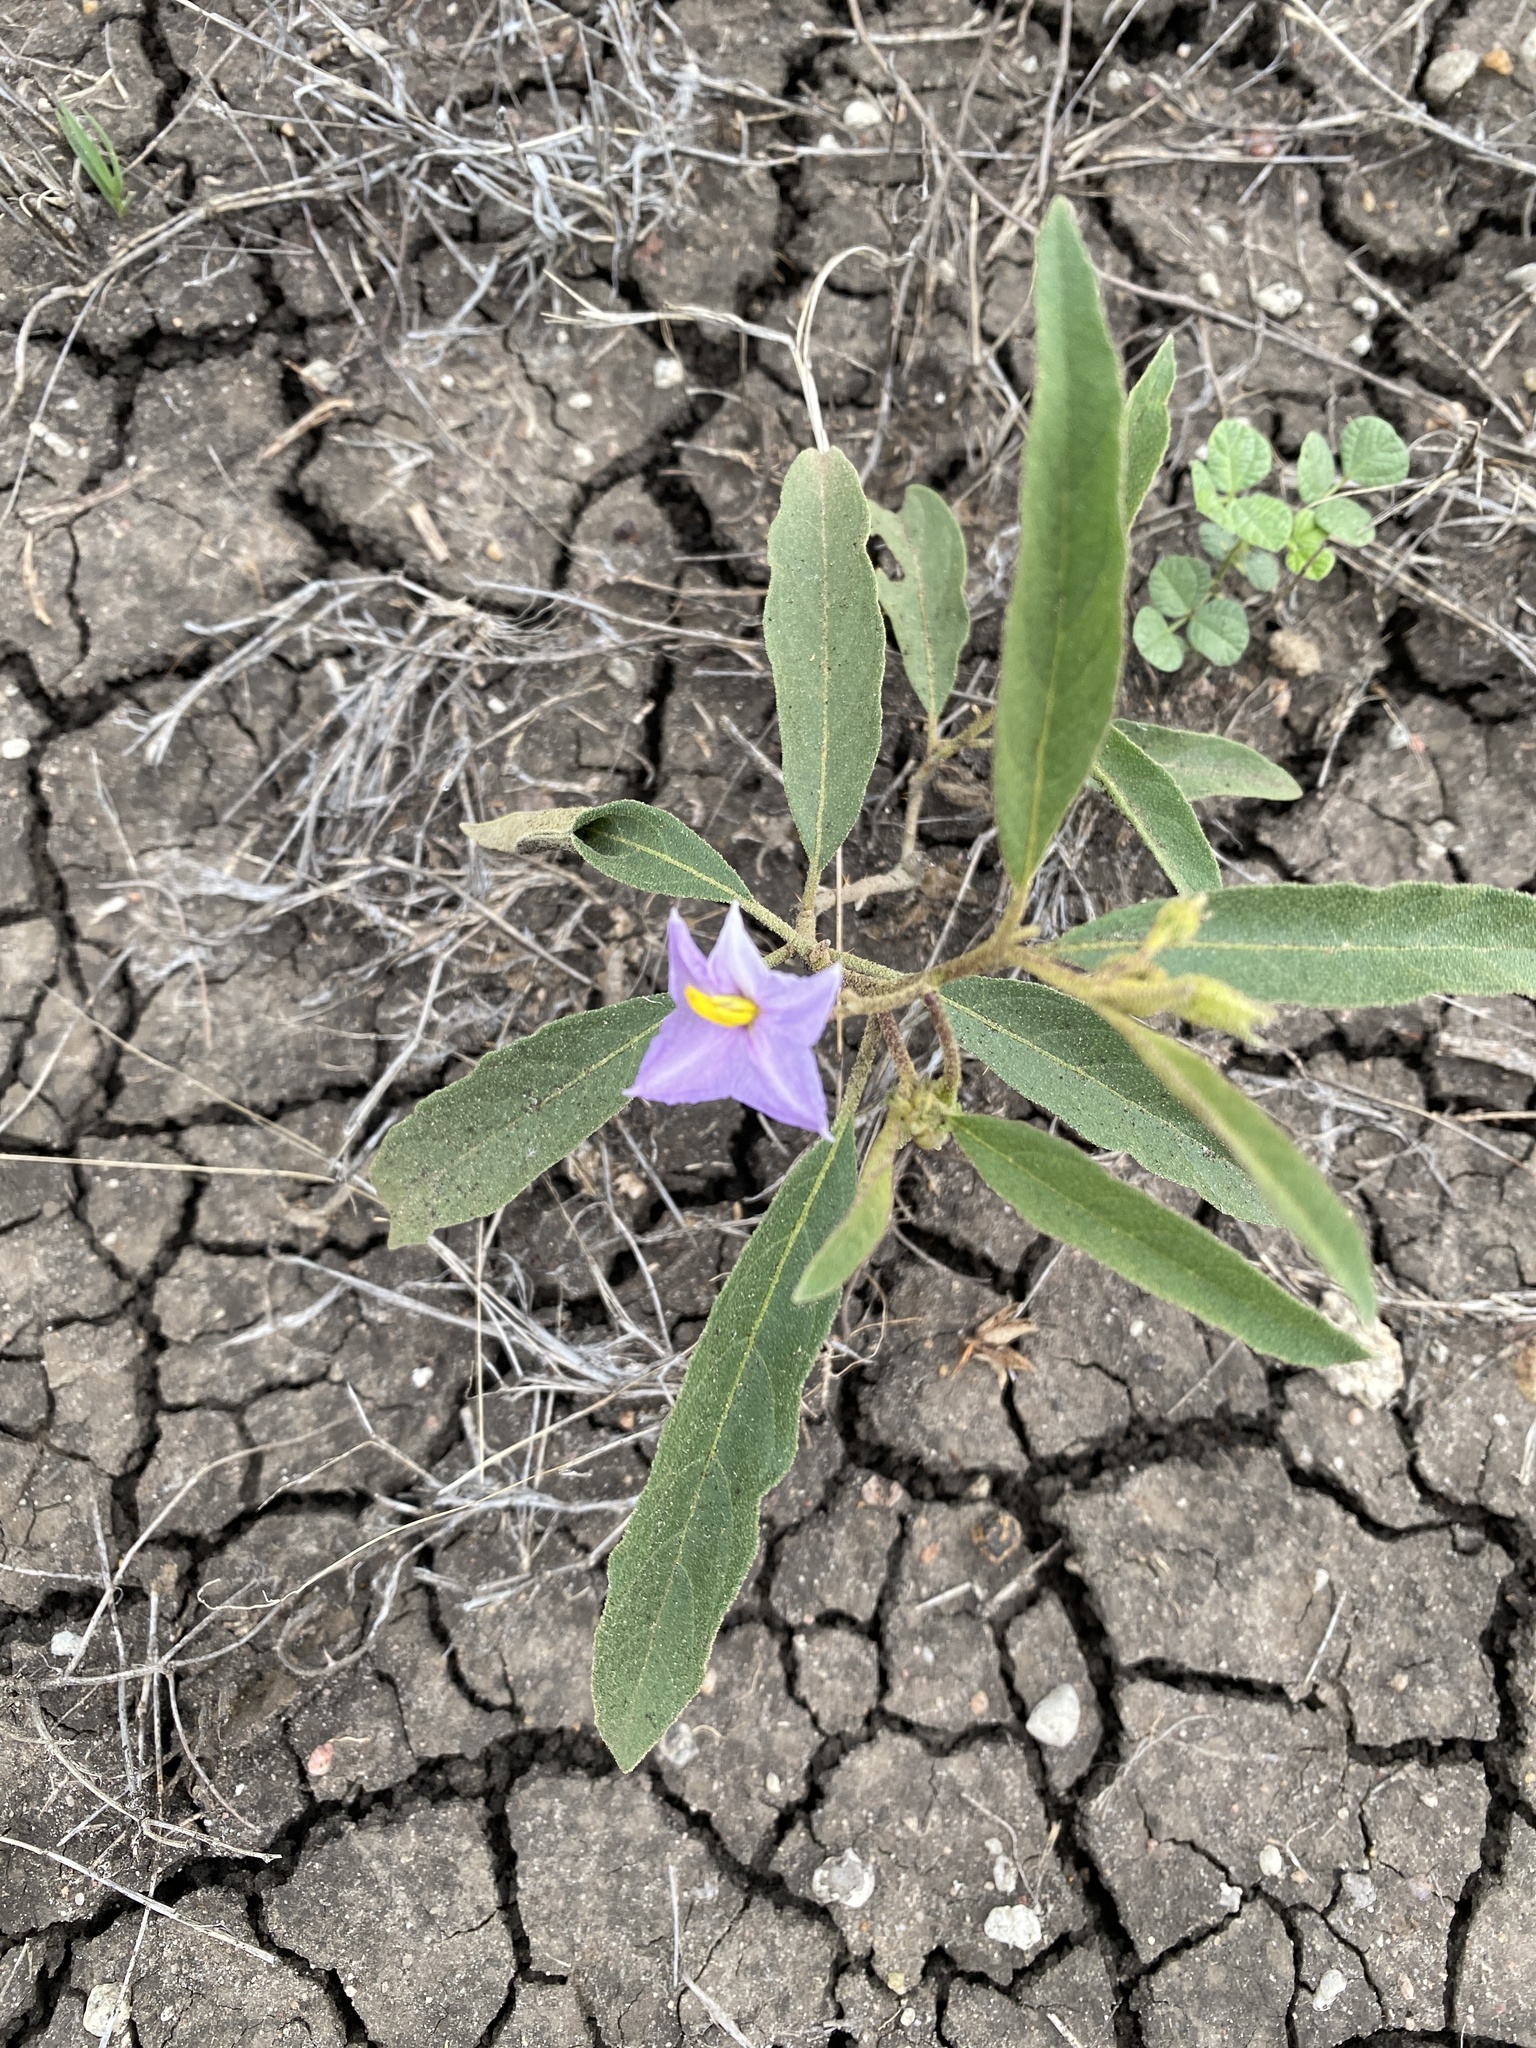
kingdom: Plantae
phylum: Tracheophyta
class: Magnoliopsida
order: Solanales
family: Solanaceae
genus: Solanum
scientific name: Solanum campylacanthum
